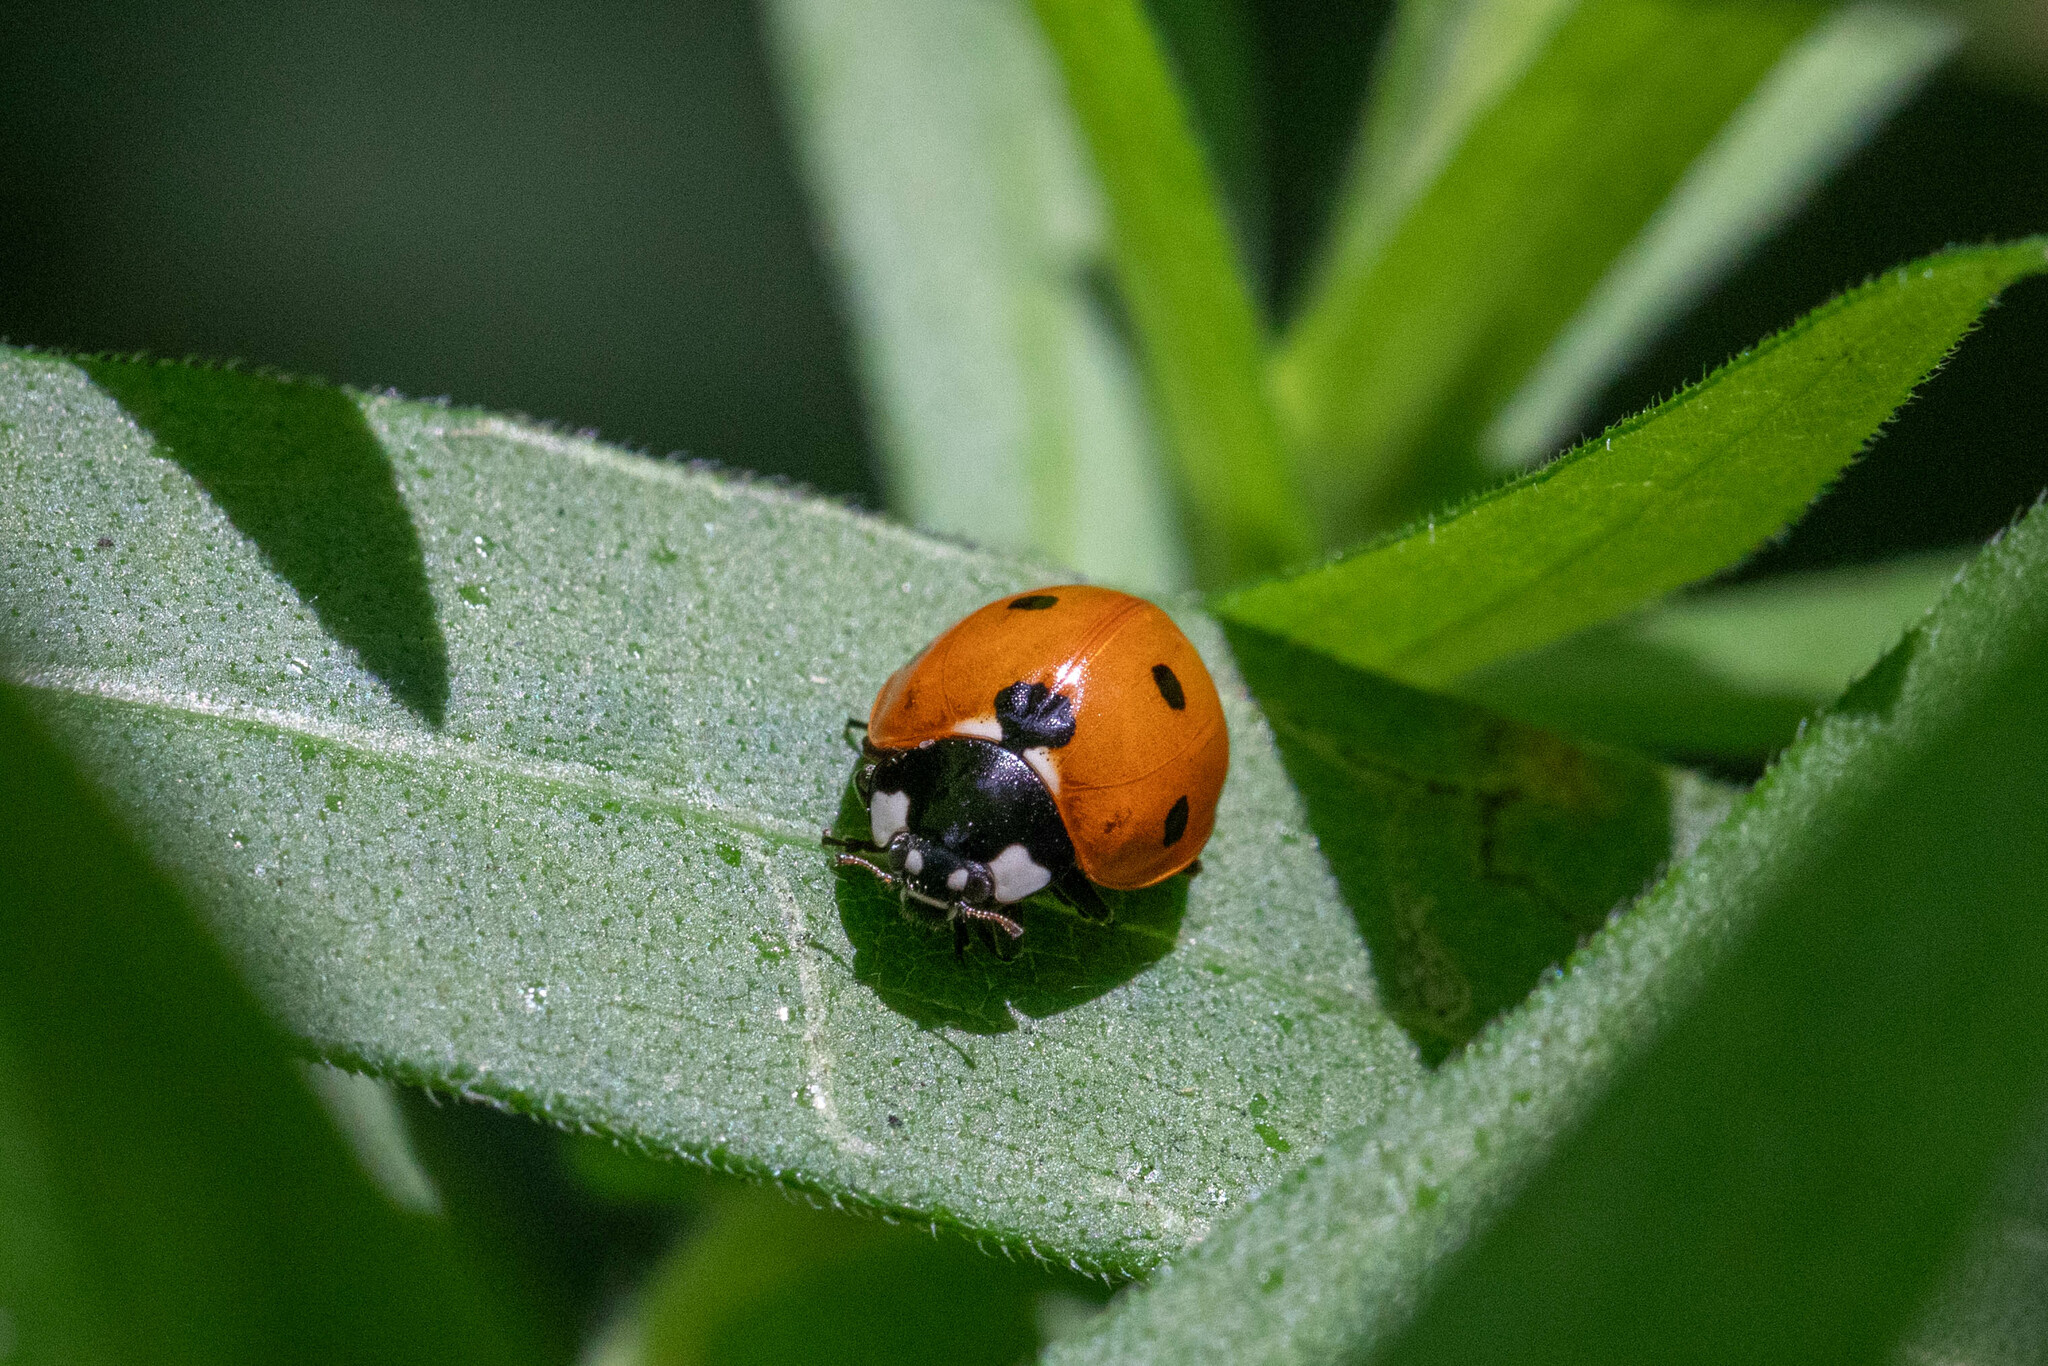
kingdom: Animalia
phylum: Arthropoda
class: Insecta
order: Coleoptera
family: Coccinellidae
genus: Coccinella
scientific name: Coccinella septempunctata
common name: Sevenspotted lady beetle
